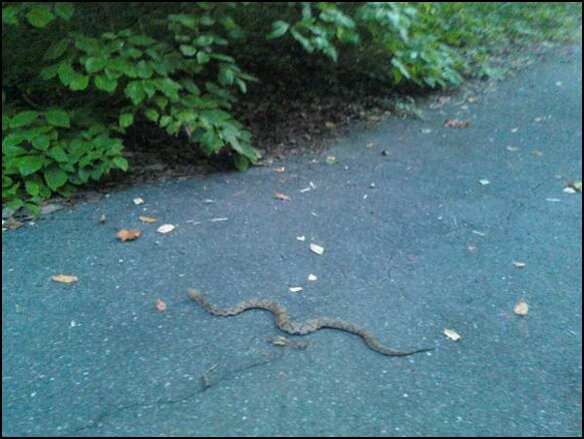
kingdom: Animalia
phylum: Chordata
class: Squamata
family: Viperidae
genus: Agkistrodon
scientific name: Agkistrodon contortrix
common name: Northern copperhead
